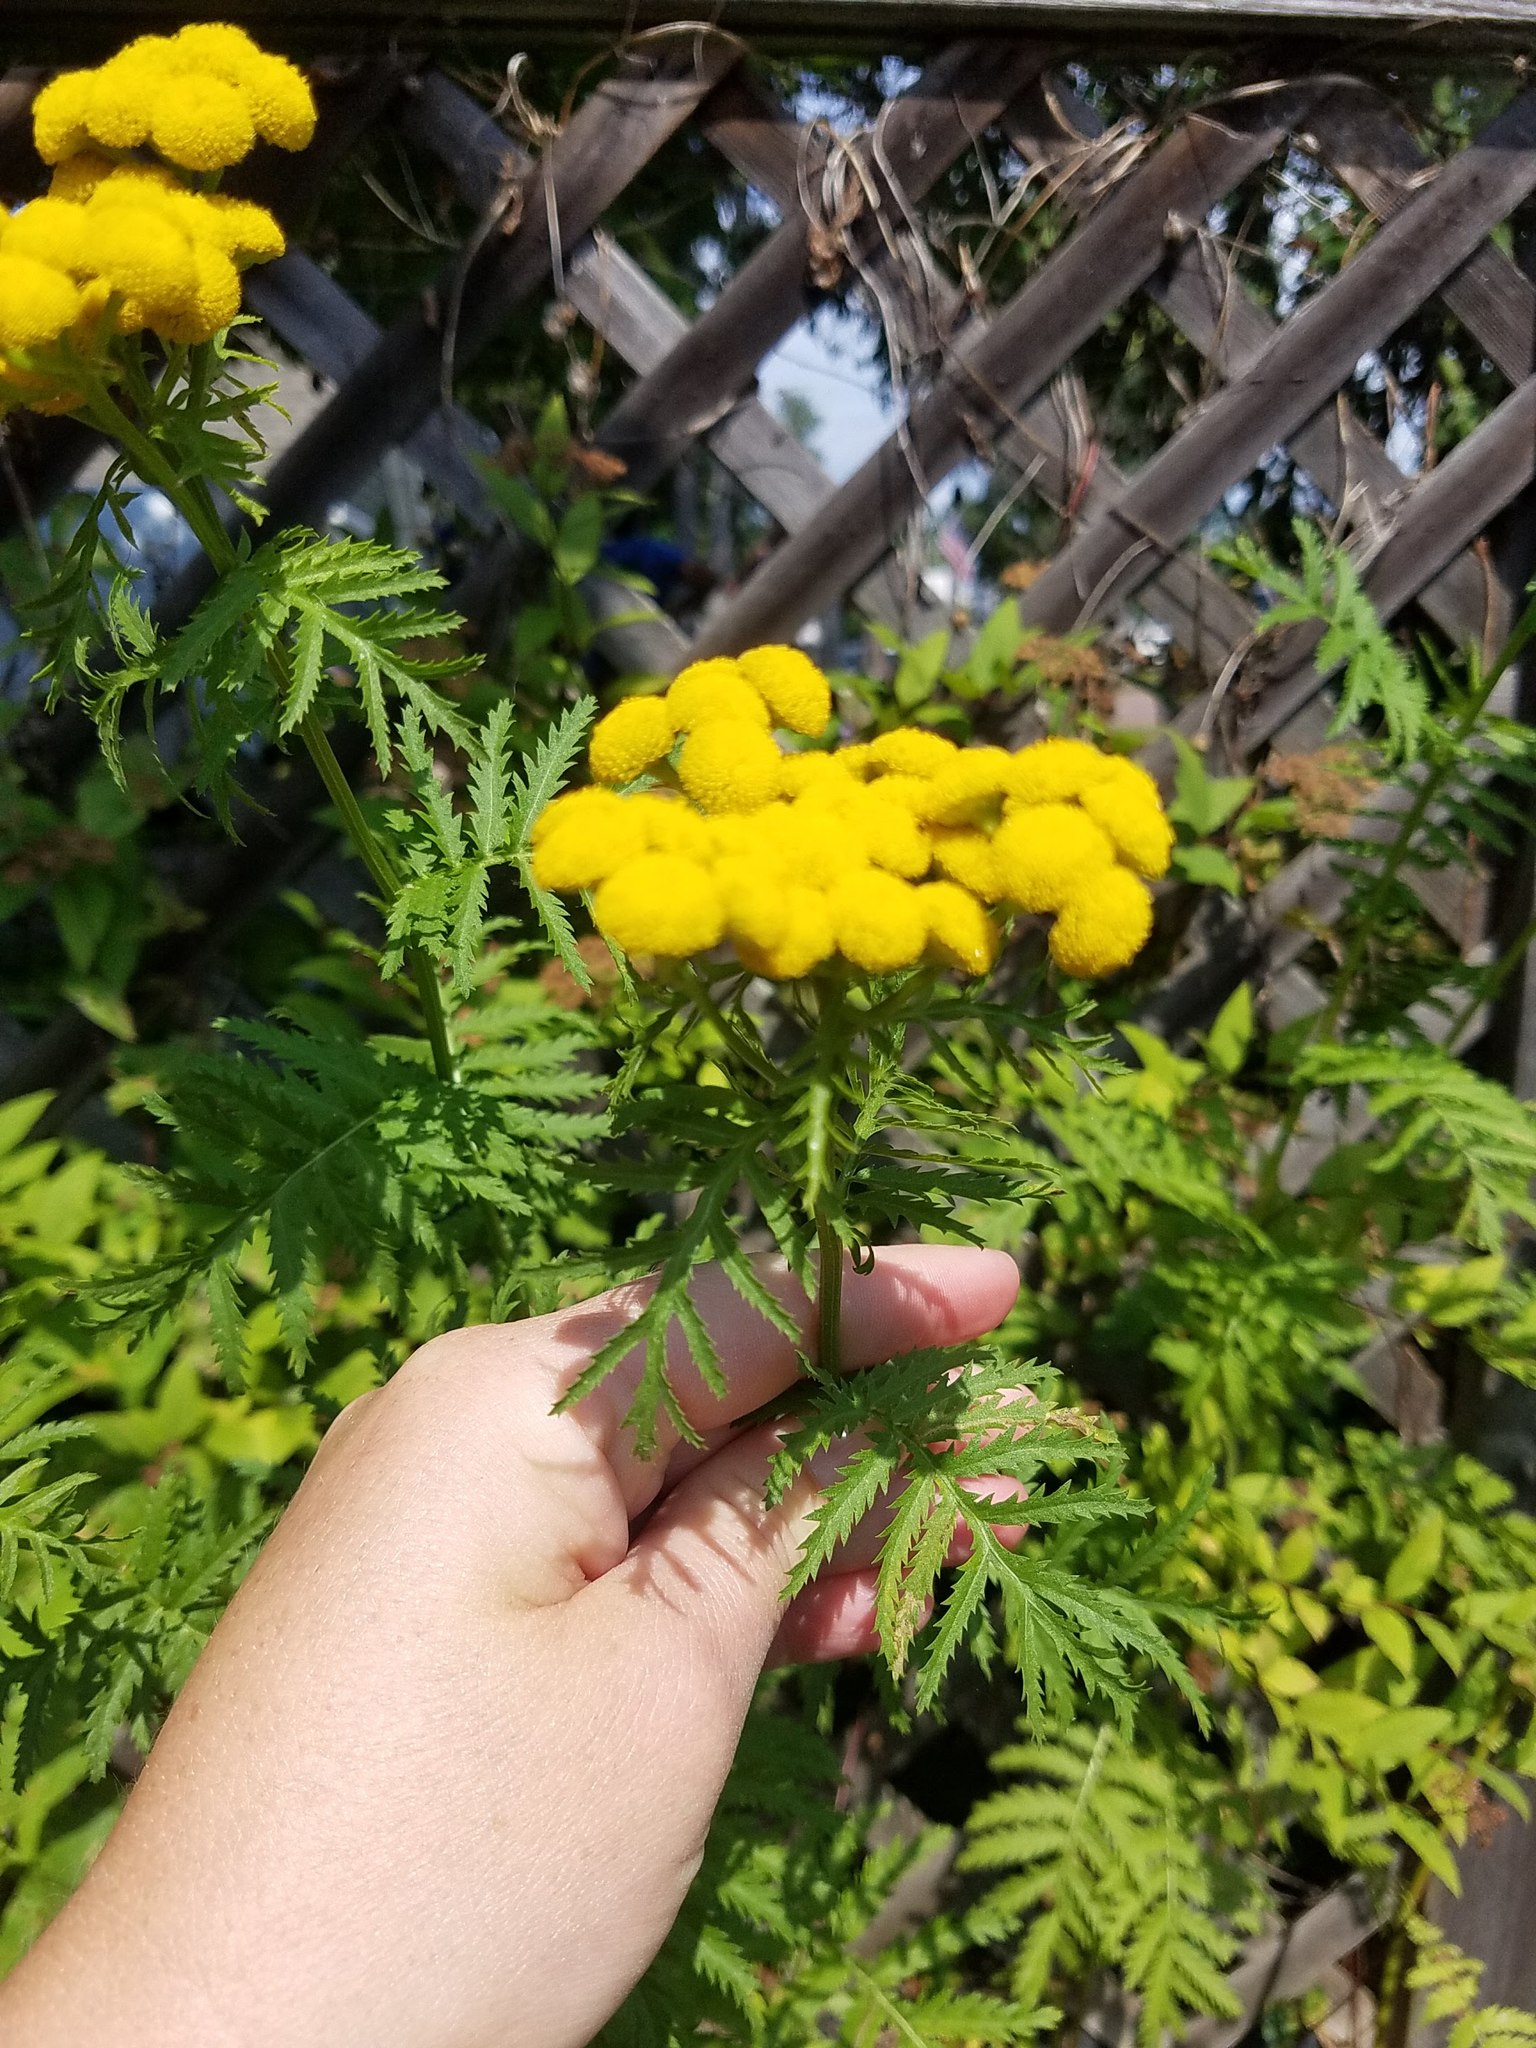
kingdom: Plantae
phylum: Tracheophyta
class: Magnoliopsida
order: Asterales
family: Asteraceae
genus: Tanacetum
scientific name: Tanacetum vulgare
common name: Common tansy
